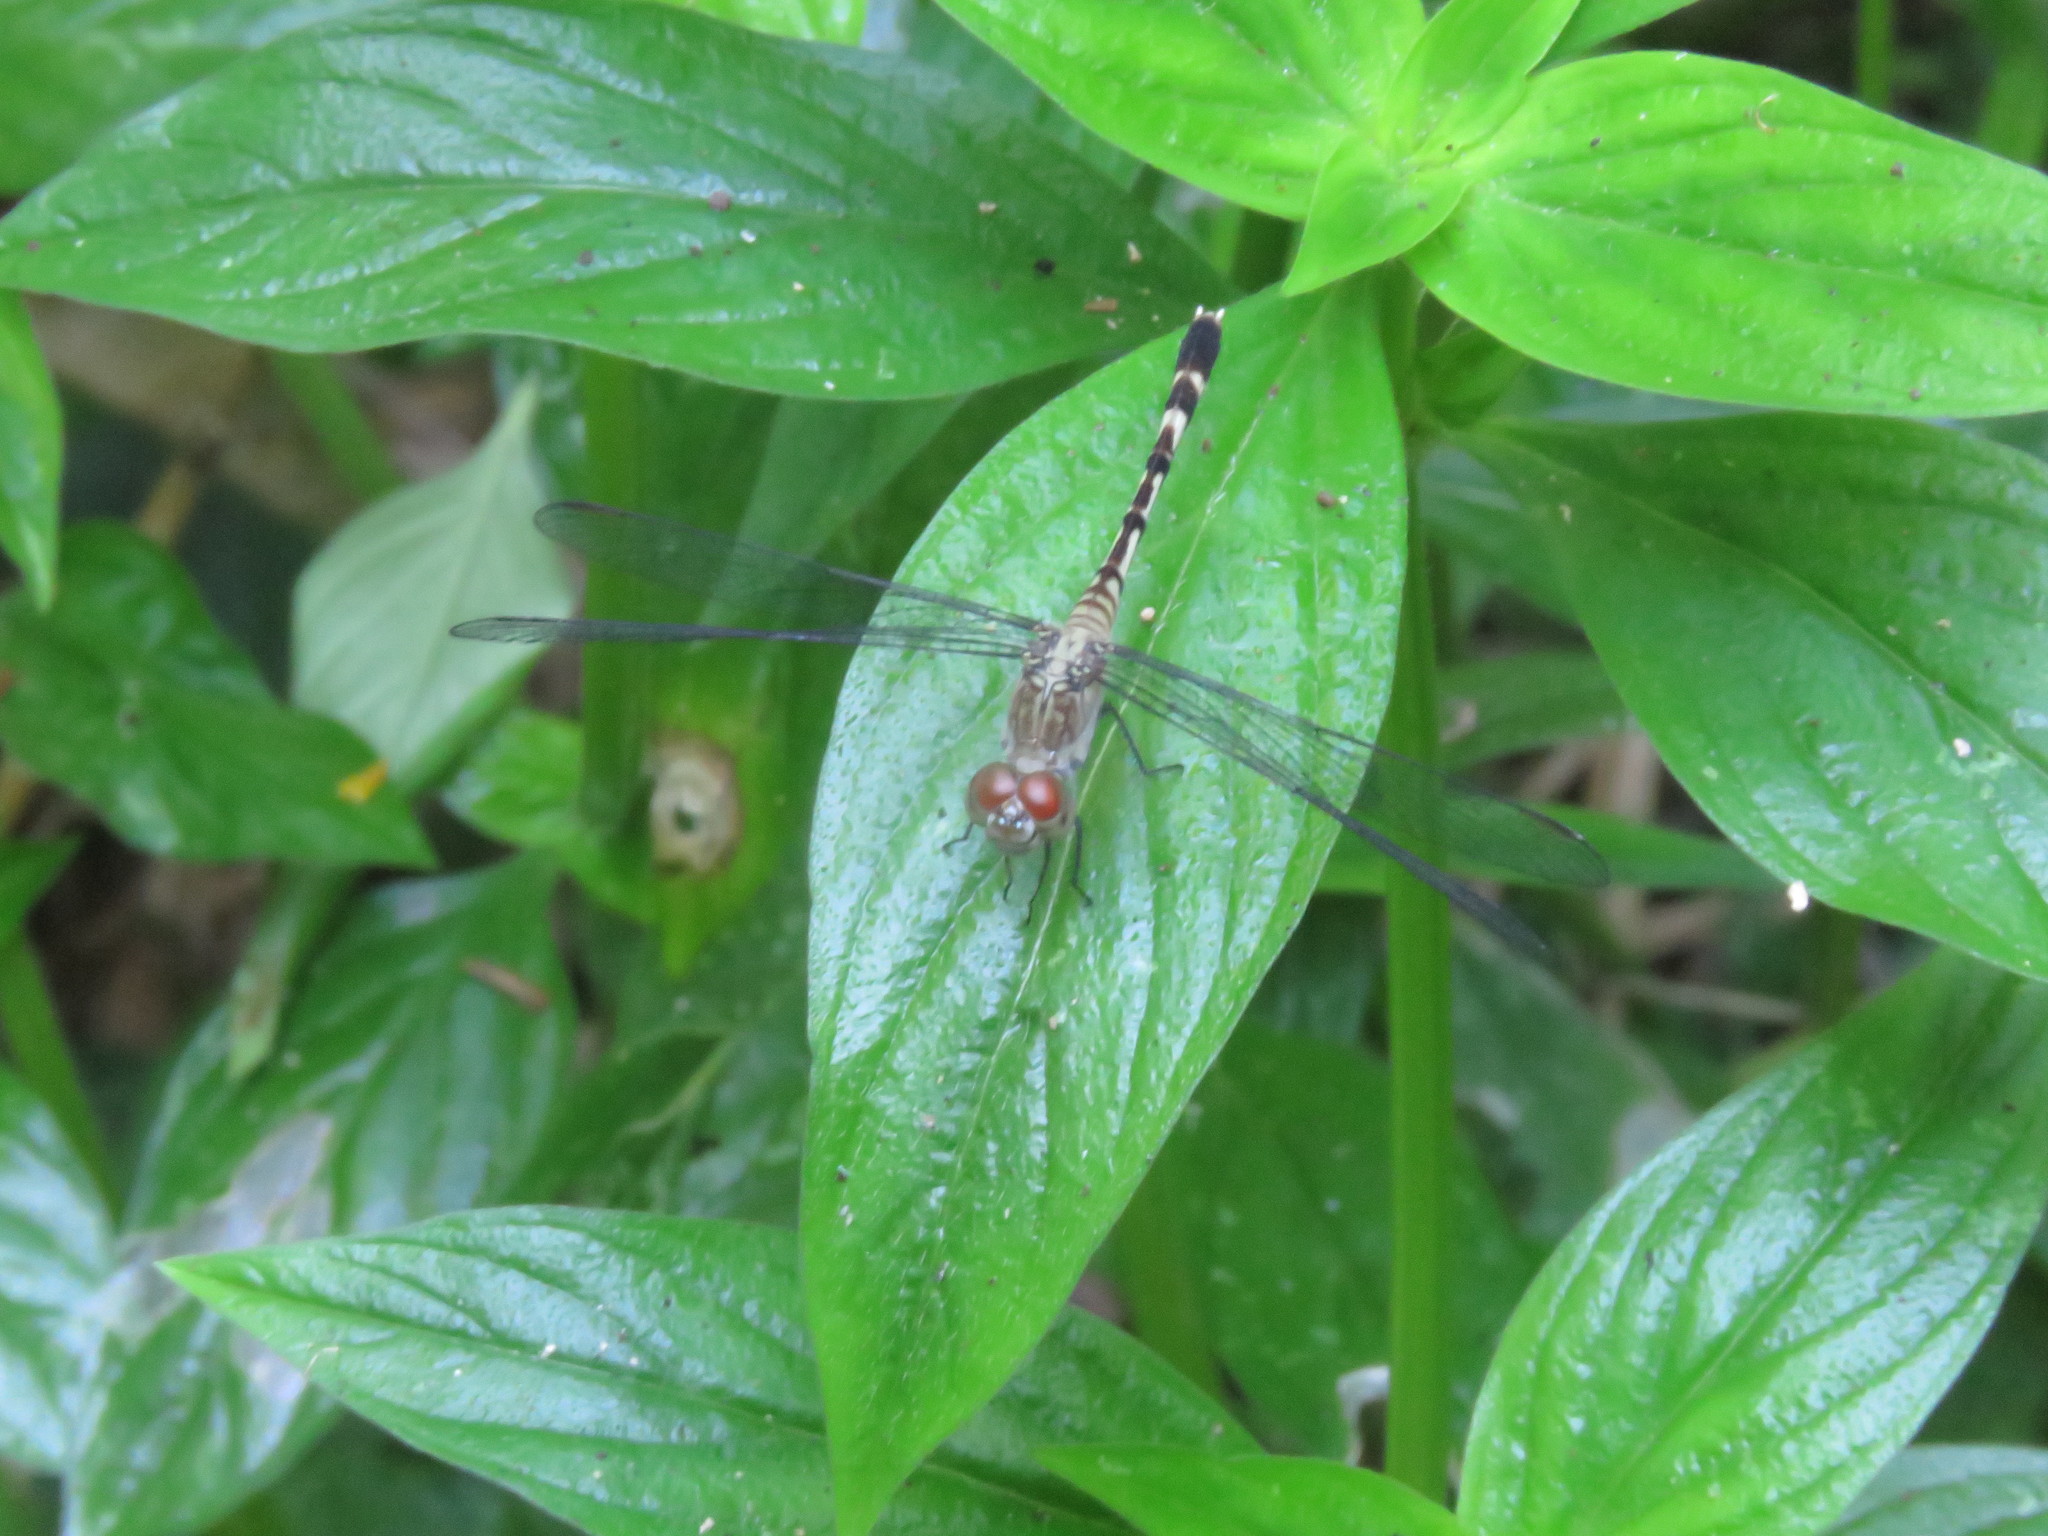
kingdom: Animalia
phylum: Arthropoda
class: Insecta
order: Odonata
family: Libellulidae
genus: Anatya
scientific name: Anatya guttata
